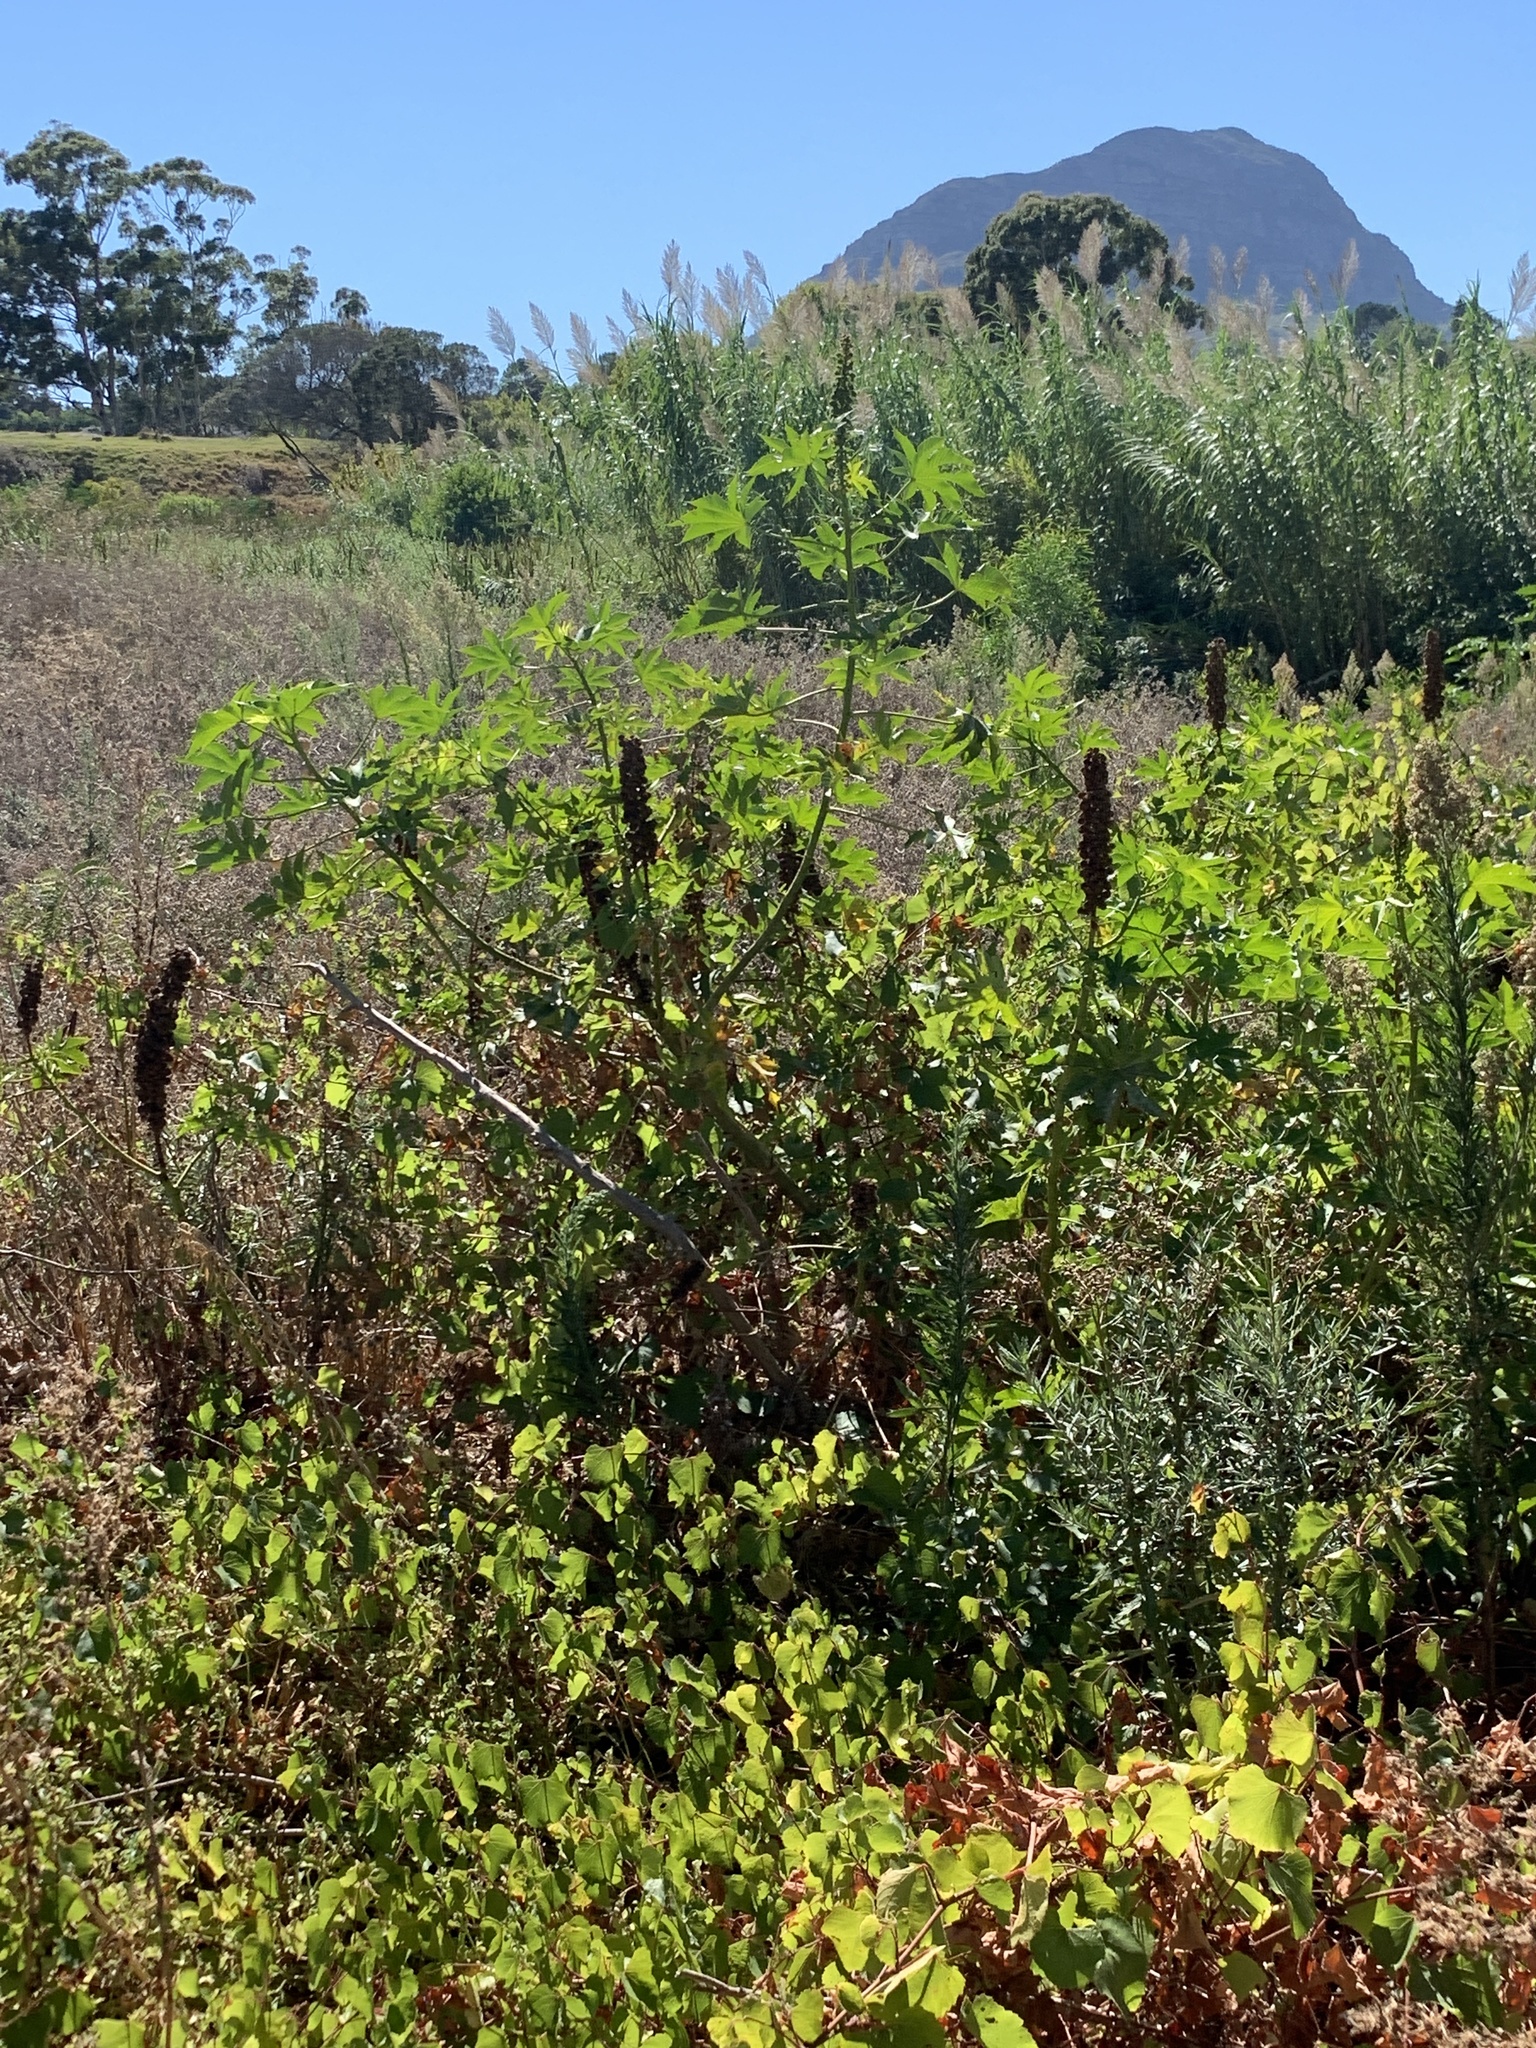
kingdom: Plantae
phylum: Tracheophyta
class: Magnoliopsida
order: Malpighiales
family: Euphorbiaceae
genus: Ricinus
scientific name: Ricinus communis
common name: Castor-oil-plant
